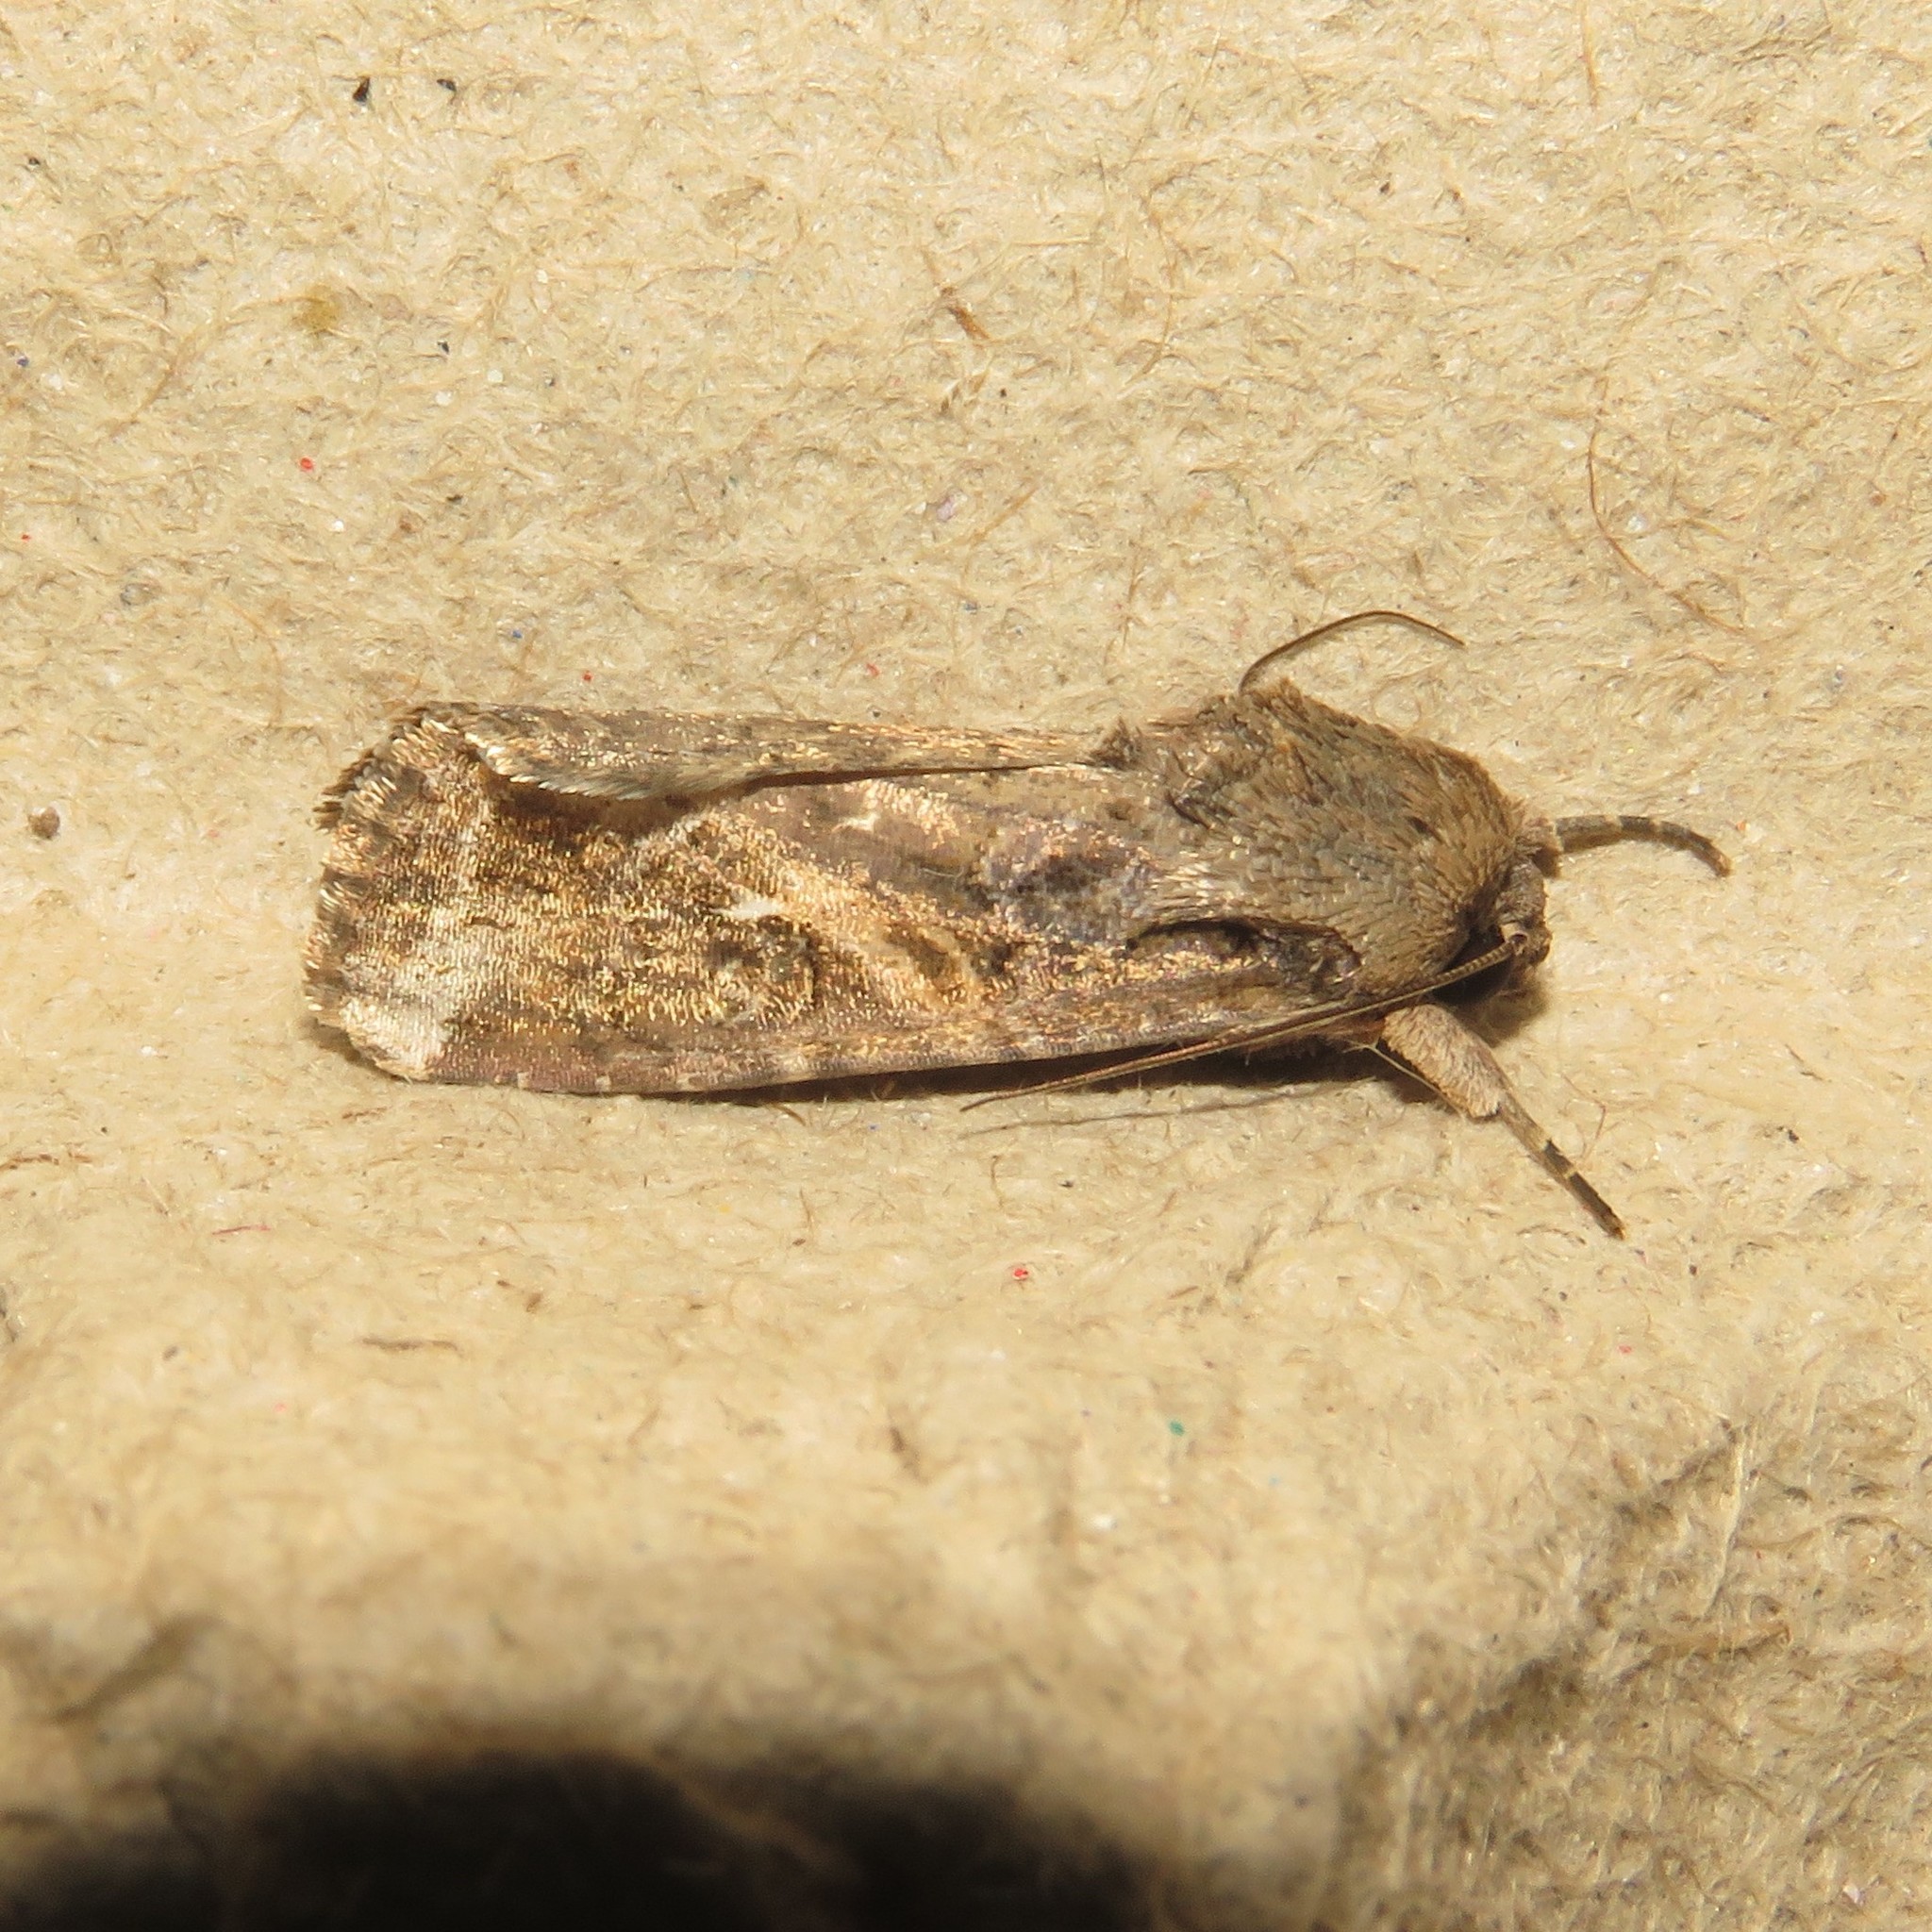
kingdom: Animalia
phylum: Arthropoda
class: Insecta
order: Lepidoptera
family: Noctuidae
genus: Spodoptera
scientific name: Spodoptera frugiperda
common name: Fall armyworm
